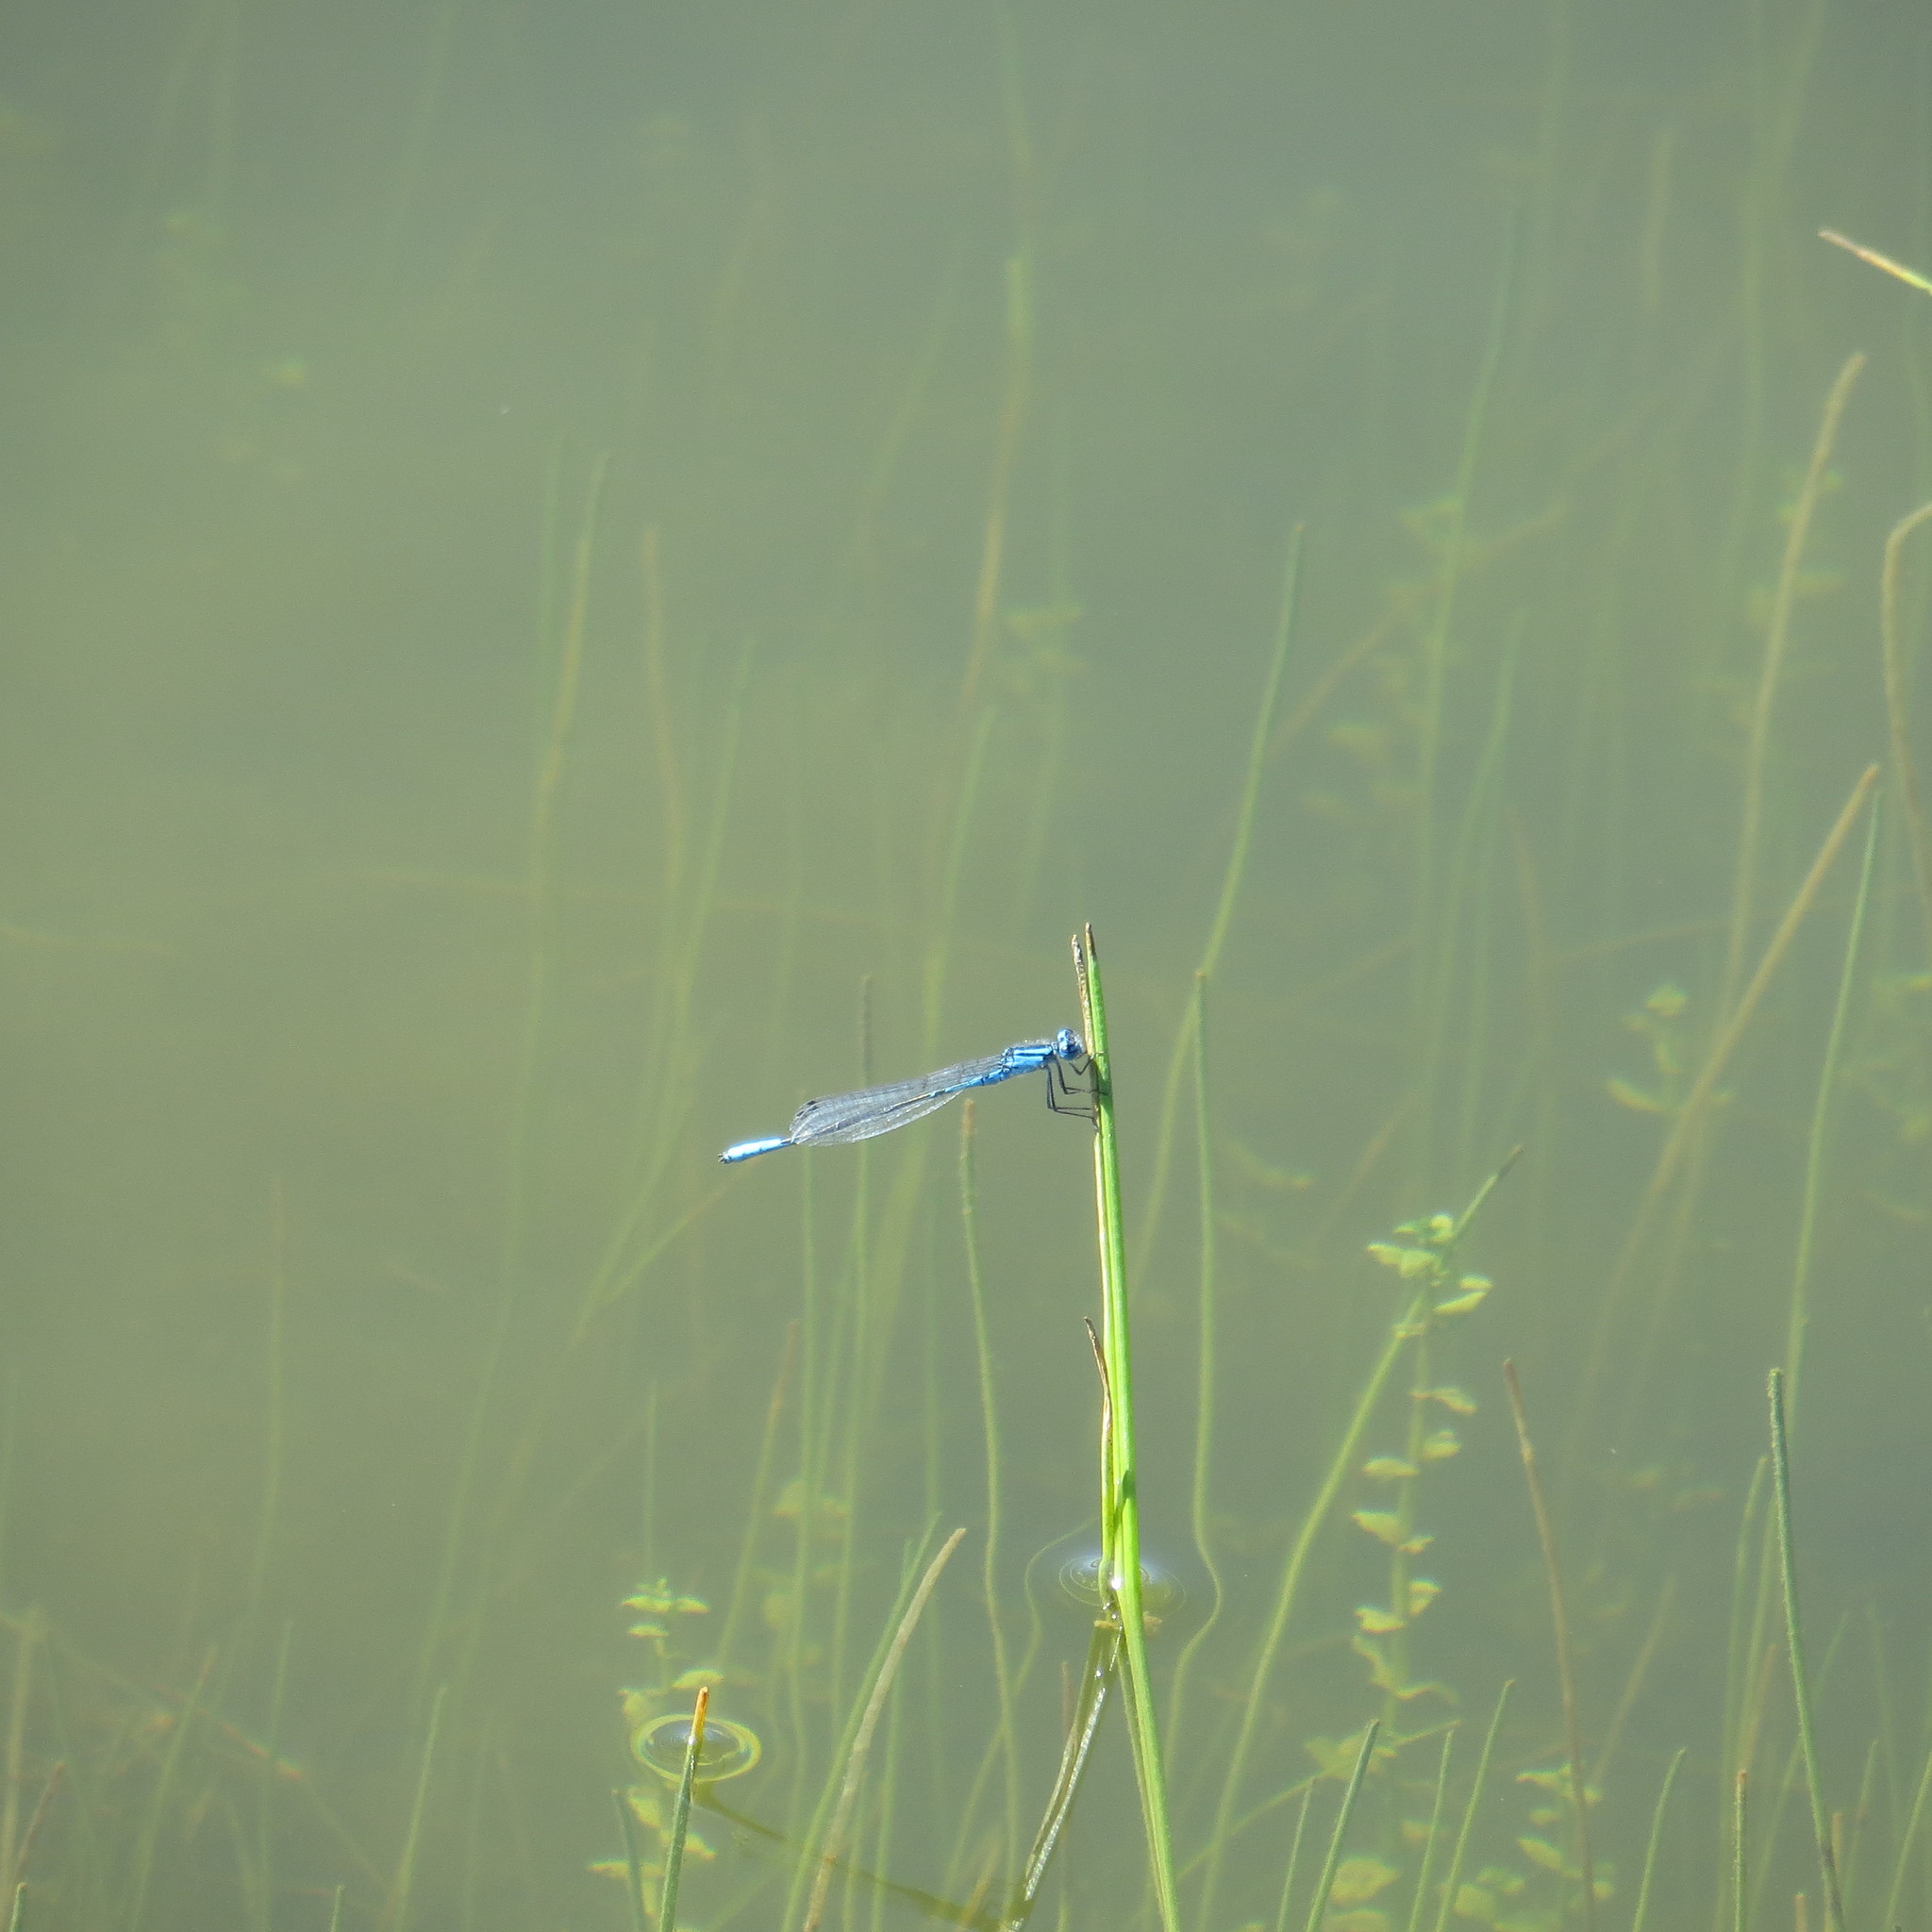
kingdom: Animalia
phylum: Arthropoda
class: Insecta
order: Odonata
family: Coenagrionidae
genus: Enallagma
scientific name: Enallagma aspersum
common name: Azure bluet
